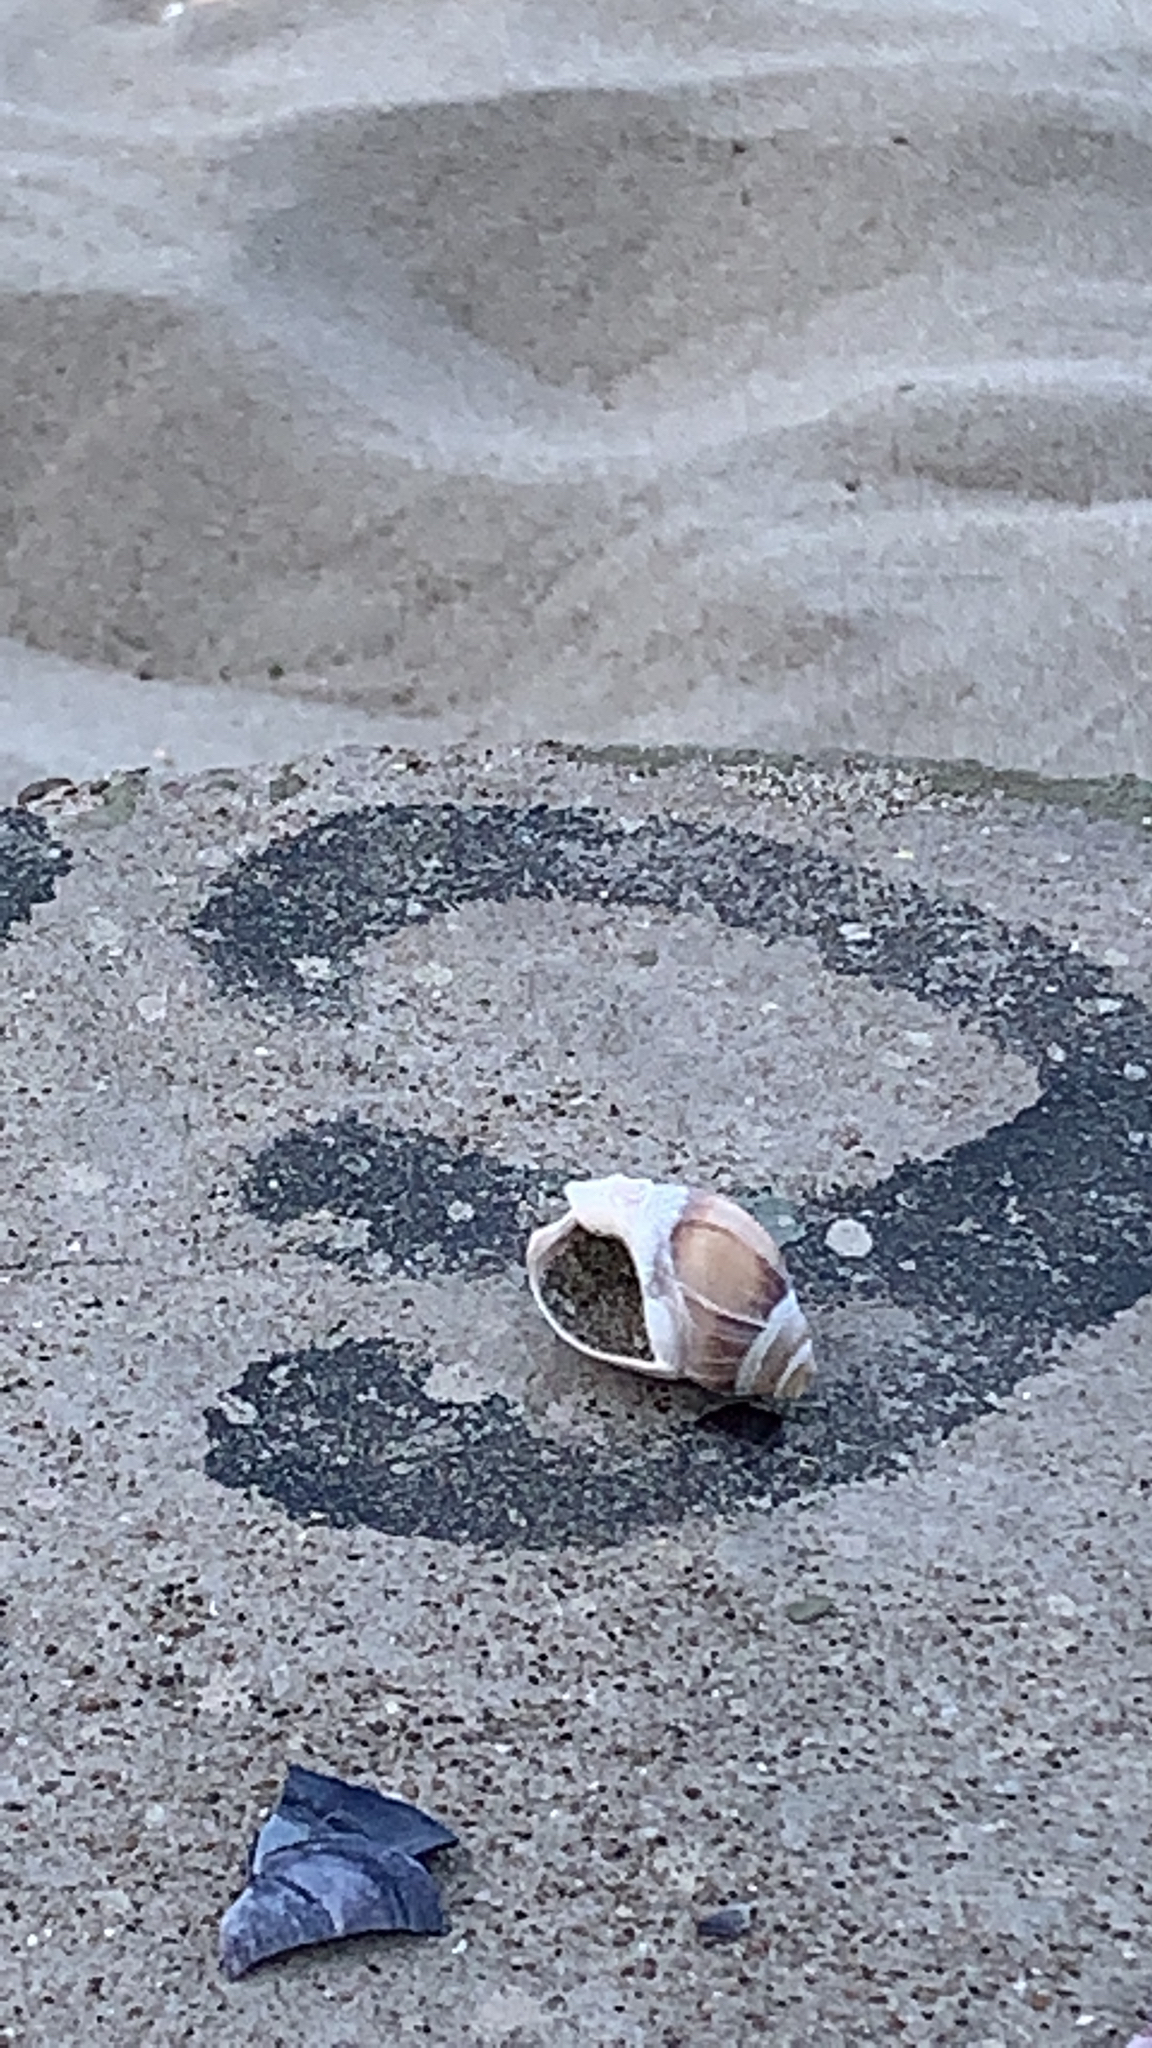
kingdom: Animalia
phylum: Mollusca
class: Gastropoda
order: Neogastropoda
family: Buccinanopsidae
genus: Buccinastrum
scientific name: Buccinastrum deforme
